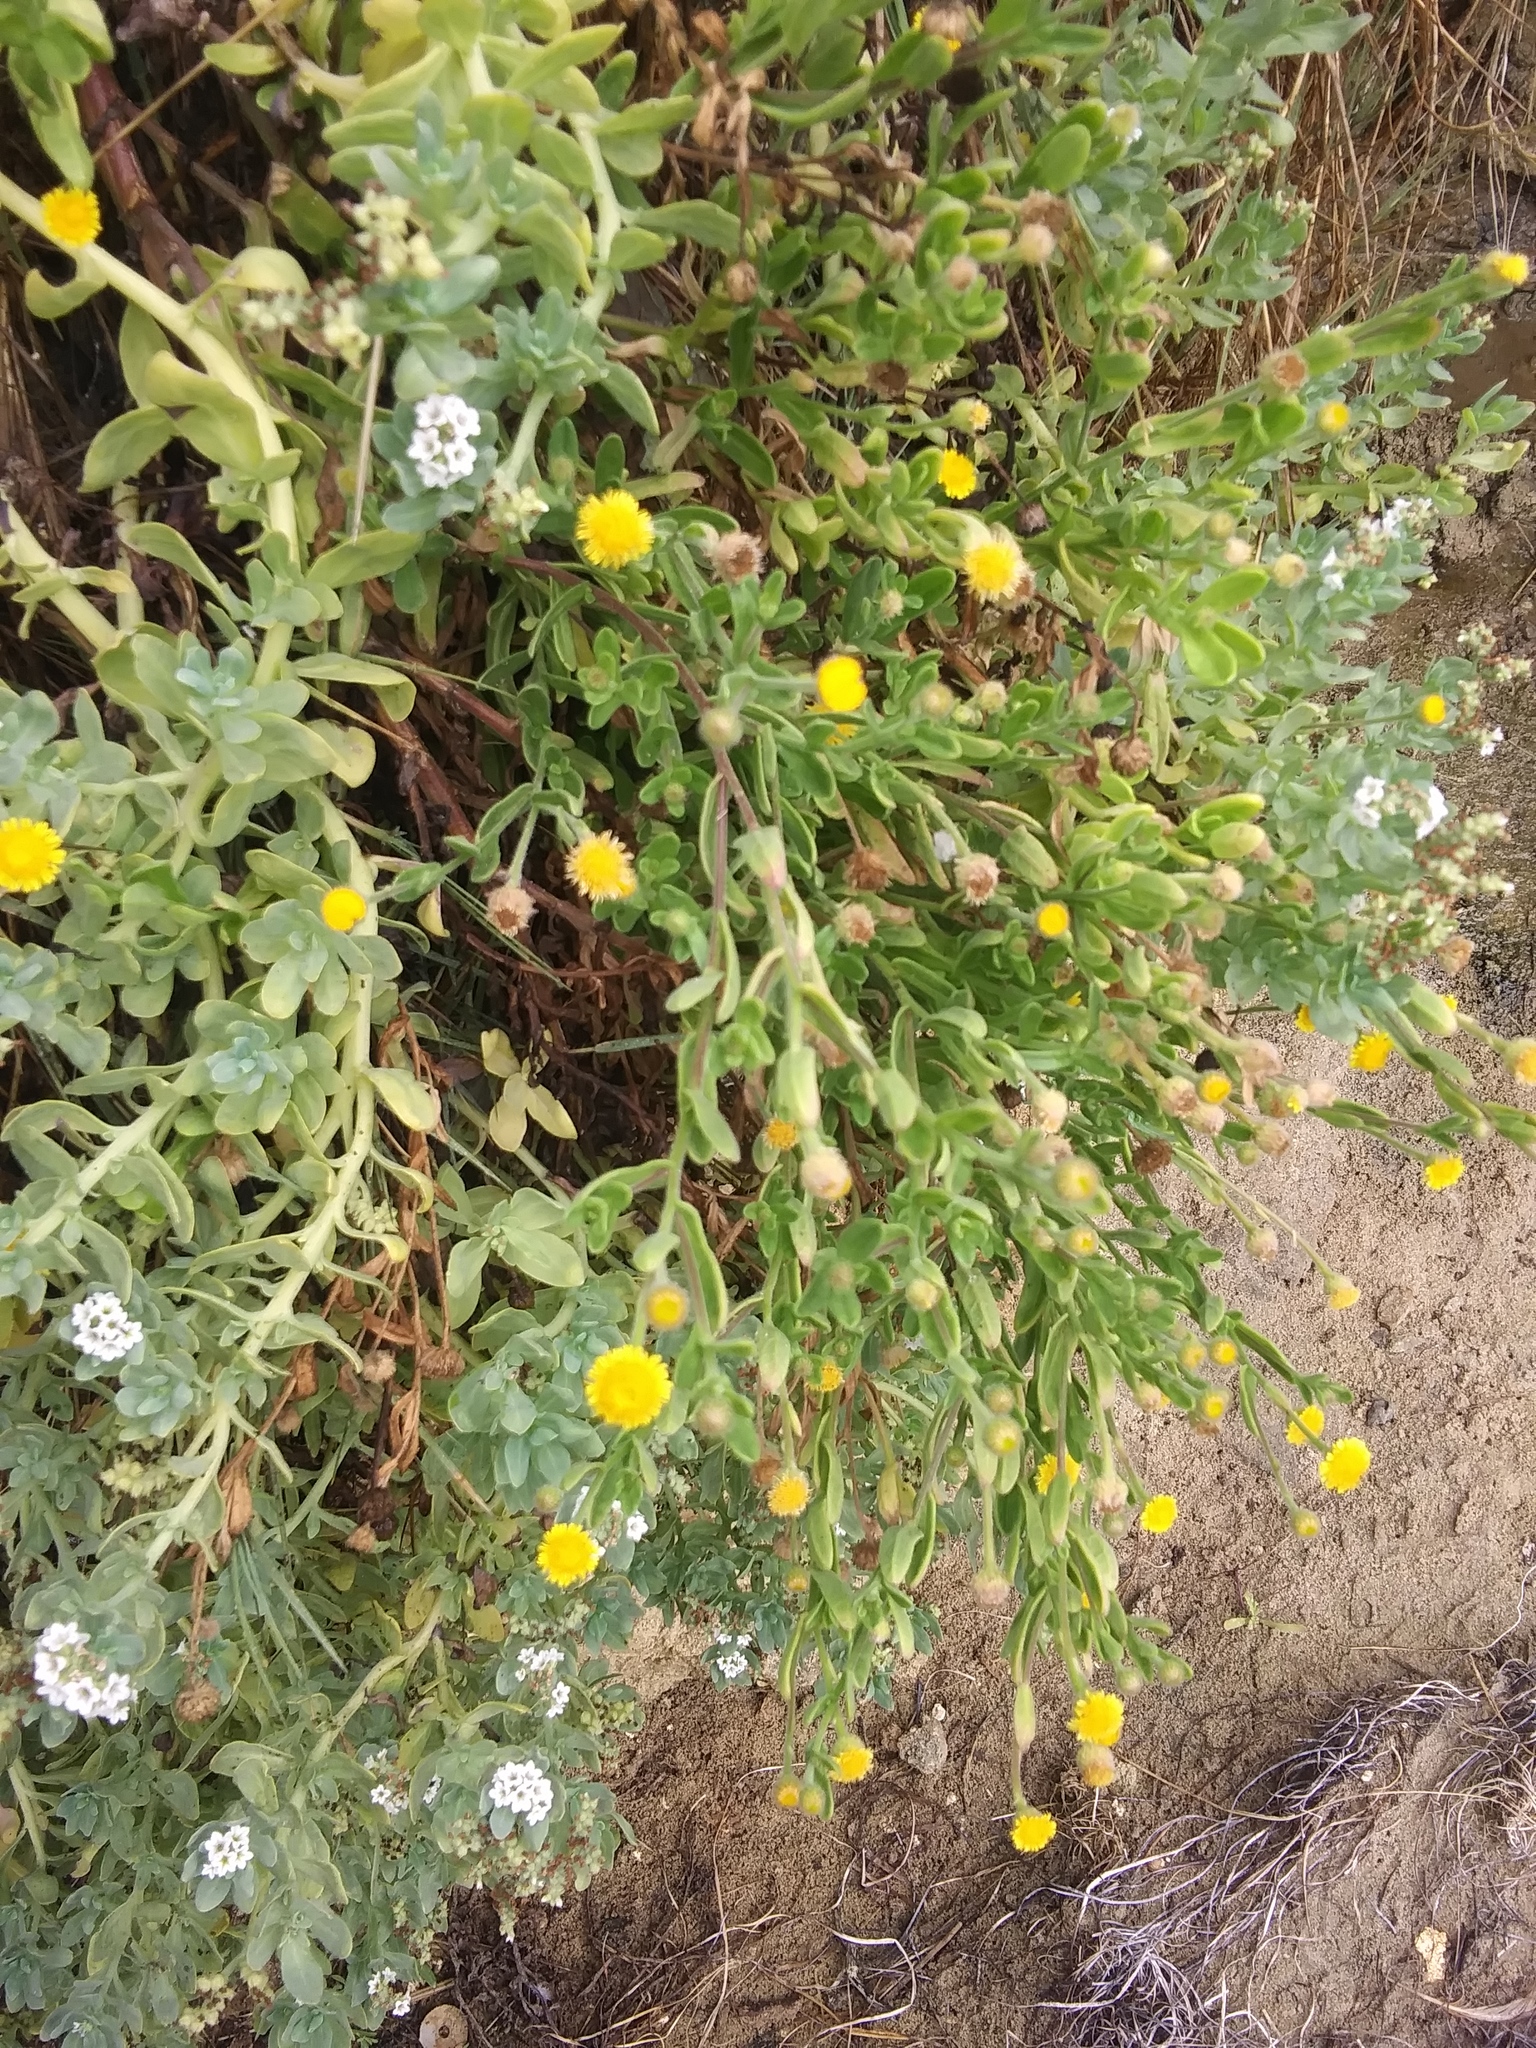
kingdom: Plantae
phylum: Tracheophyta
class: Magnoliopsida
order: Asterales
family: Asteraceae
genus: Pulicaria
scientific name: Pulicaria paludosa
